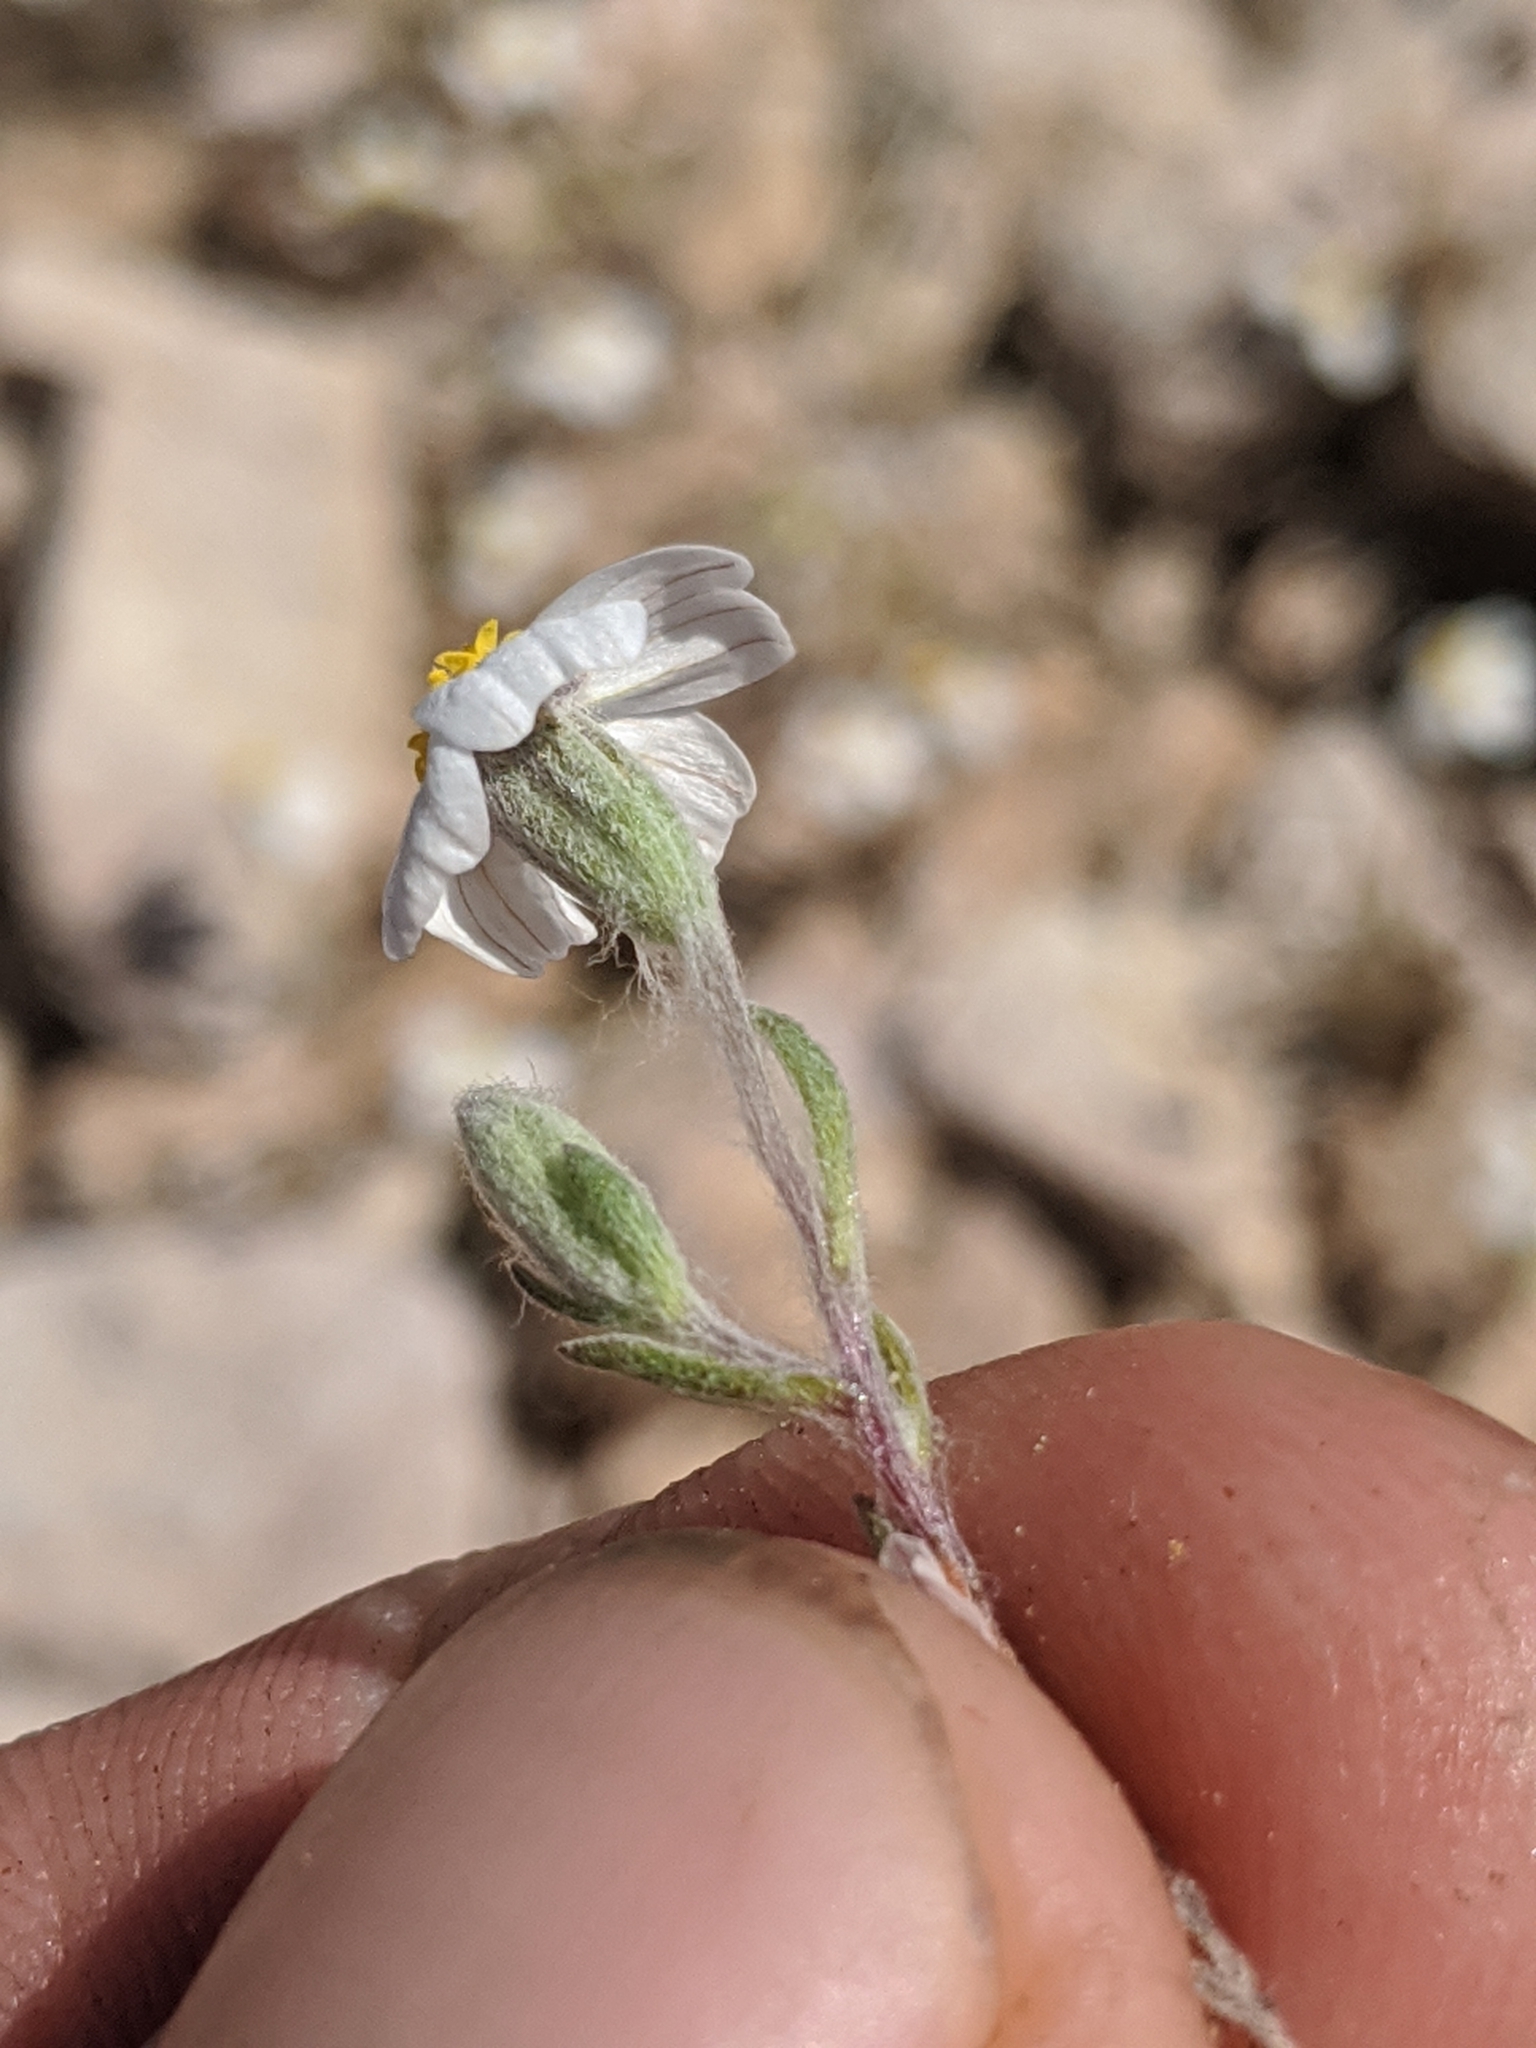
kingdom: Plantae
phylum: Tracheophyta
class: Magnoliopsida
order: Asterales
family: Asteraceae
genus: Eriophyllum
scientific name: Eriophyllum lanosum
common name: White easter-bonnets
